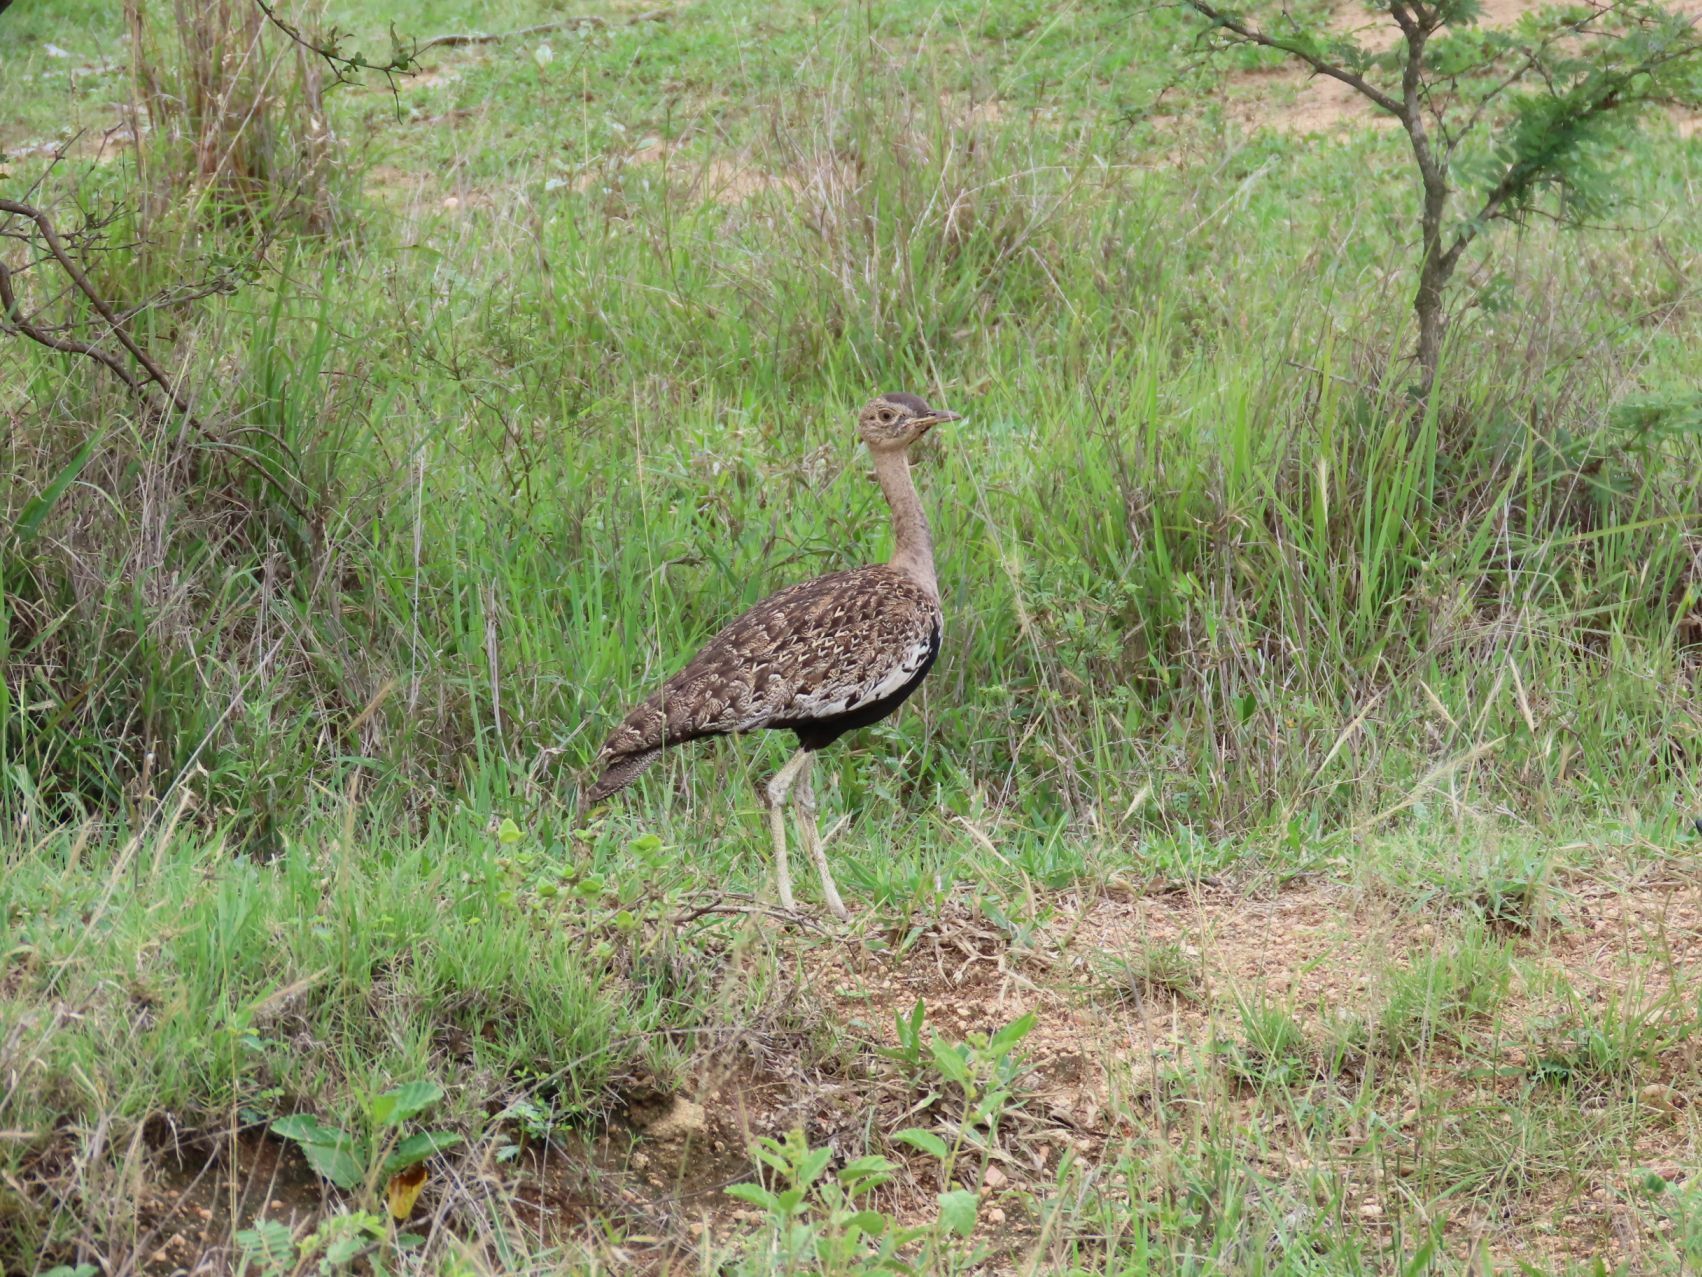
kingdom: Animalia
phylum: Chordata
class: Aves
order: Otidiformes
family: Otididae
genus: Lophotis
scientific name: Lophotis ruficrista
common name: Red-crested korhaan
